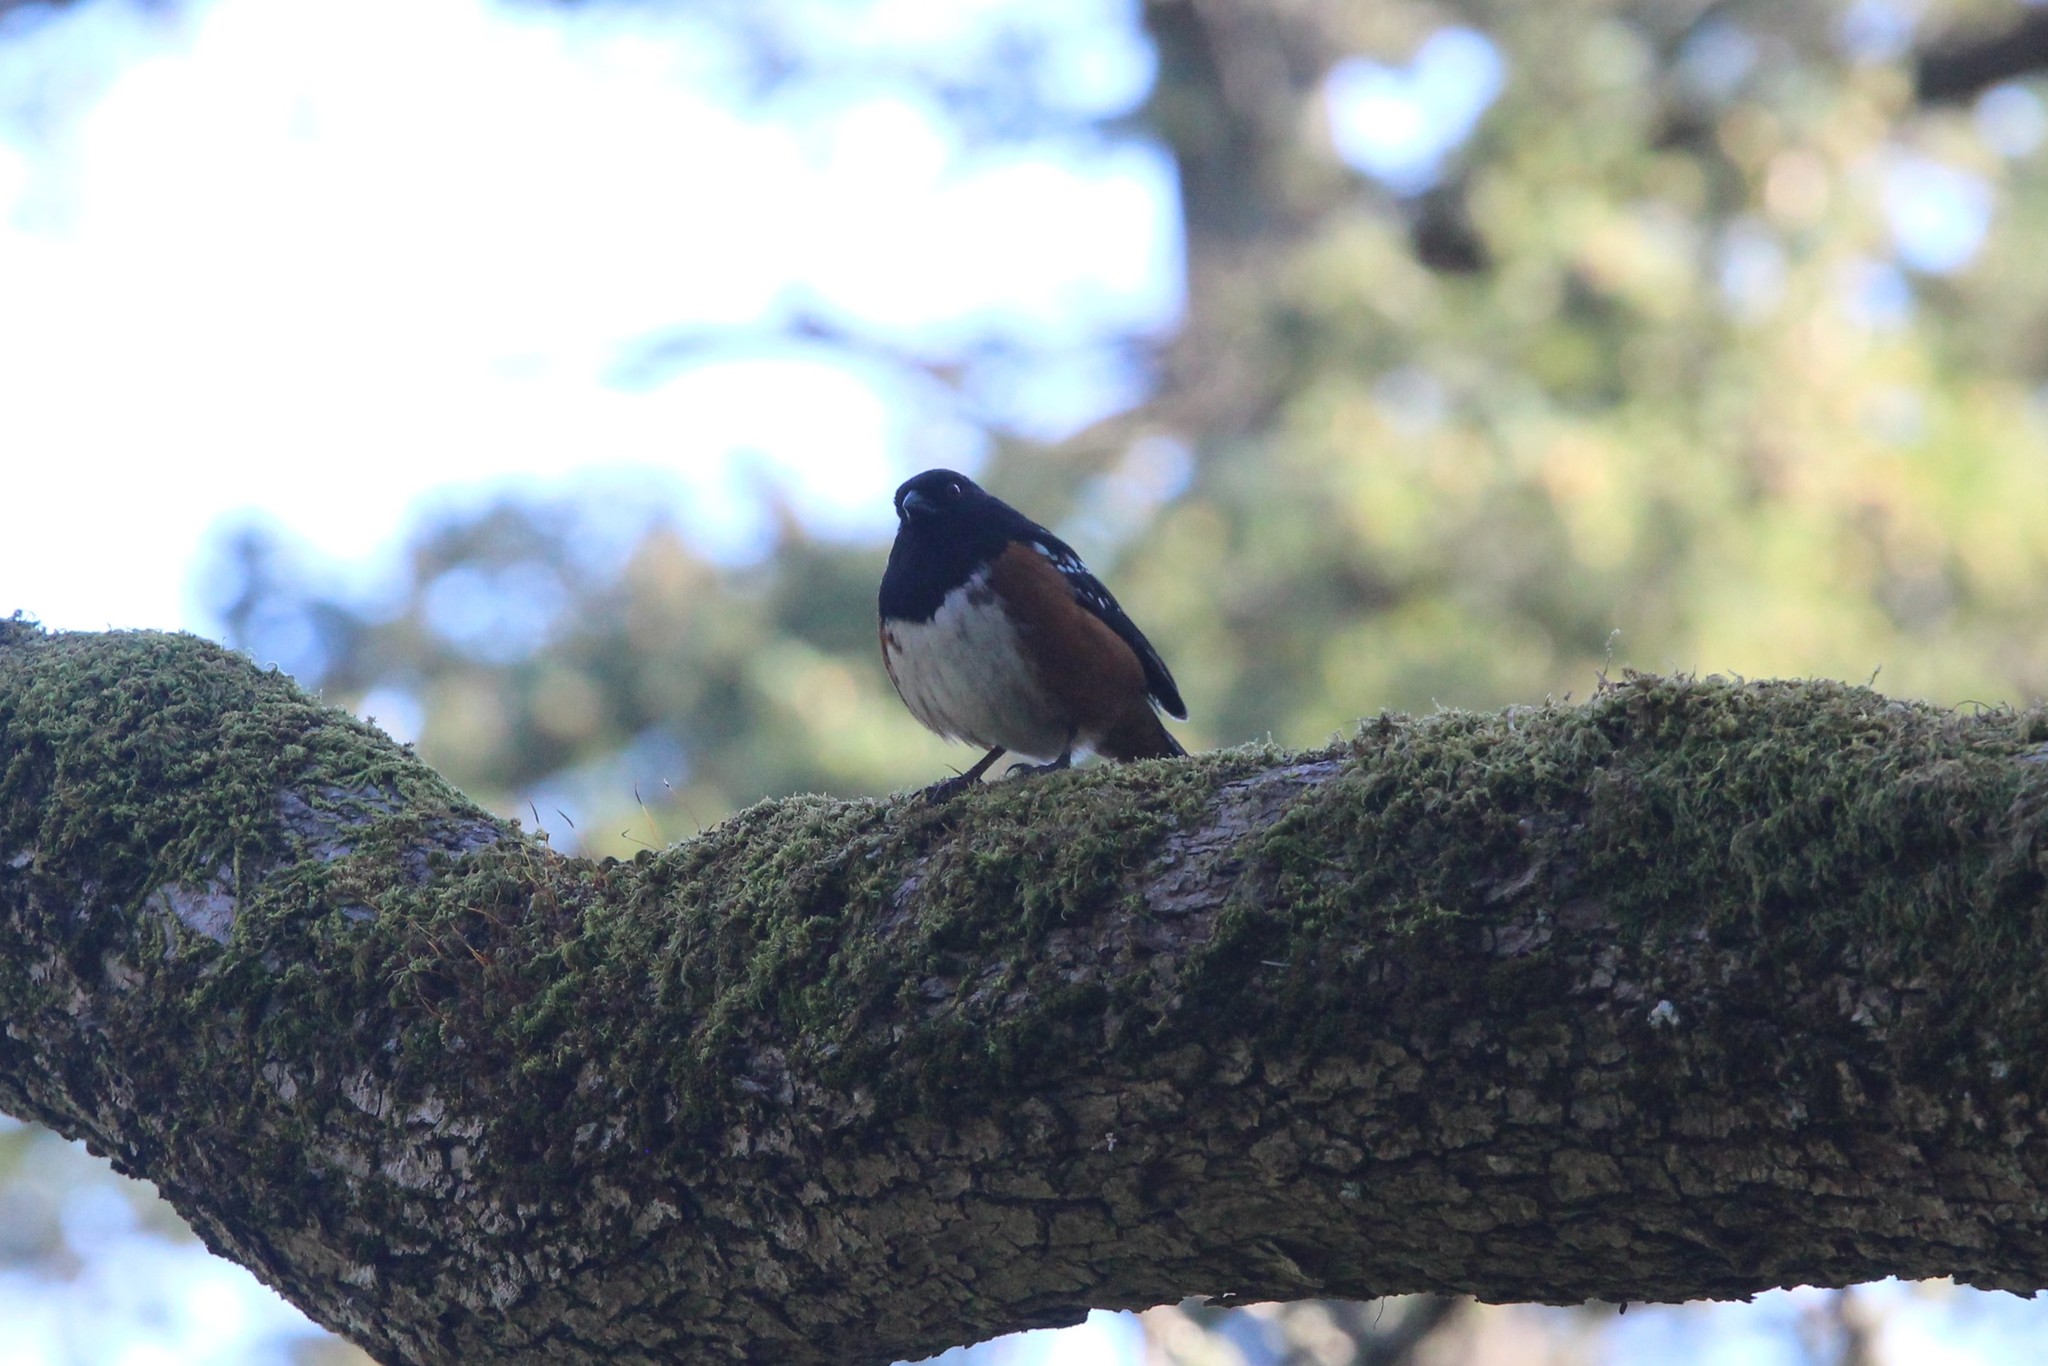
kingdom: Animalia
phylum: Chordata
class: Aves
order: Passeriformes
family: Passerellidae
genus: Pipilo
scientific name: Pipilo maculatus
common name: Spotted towhee
